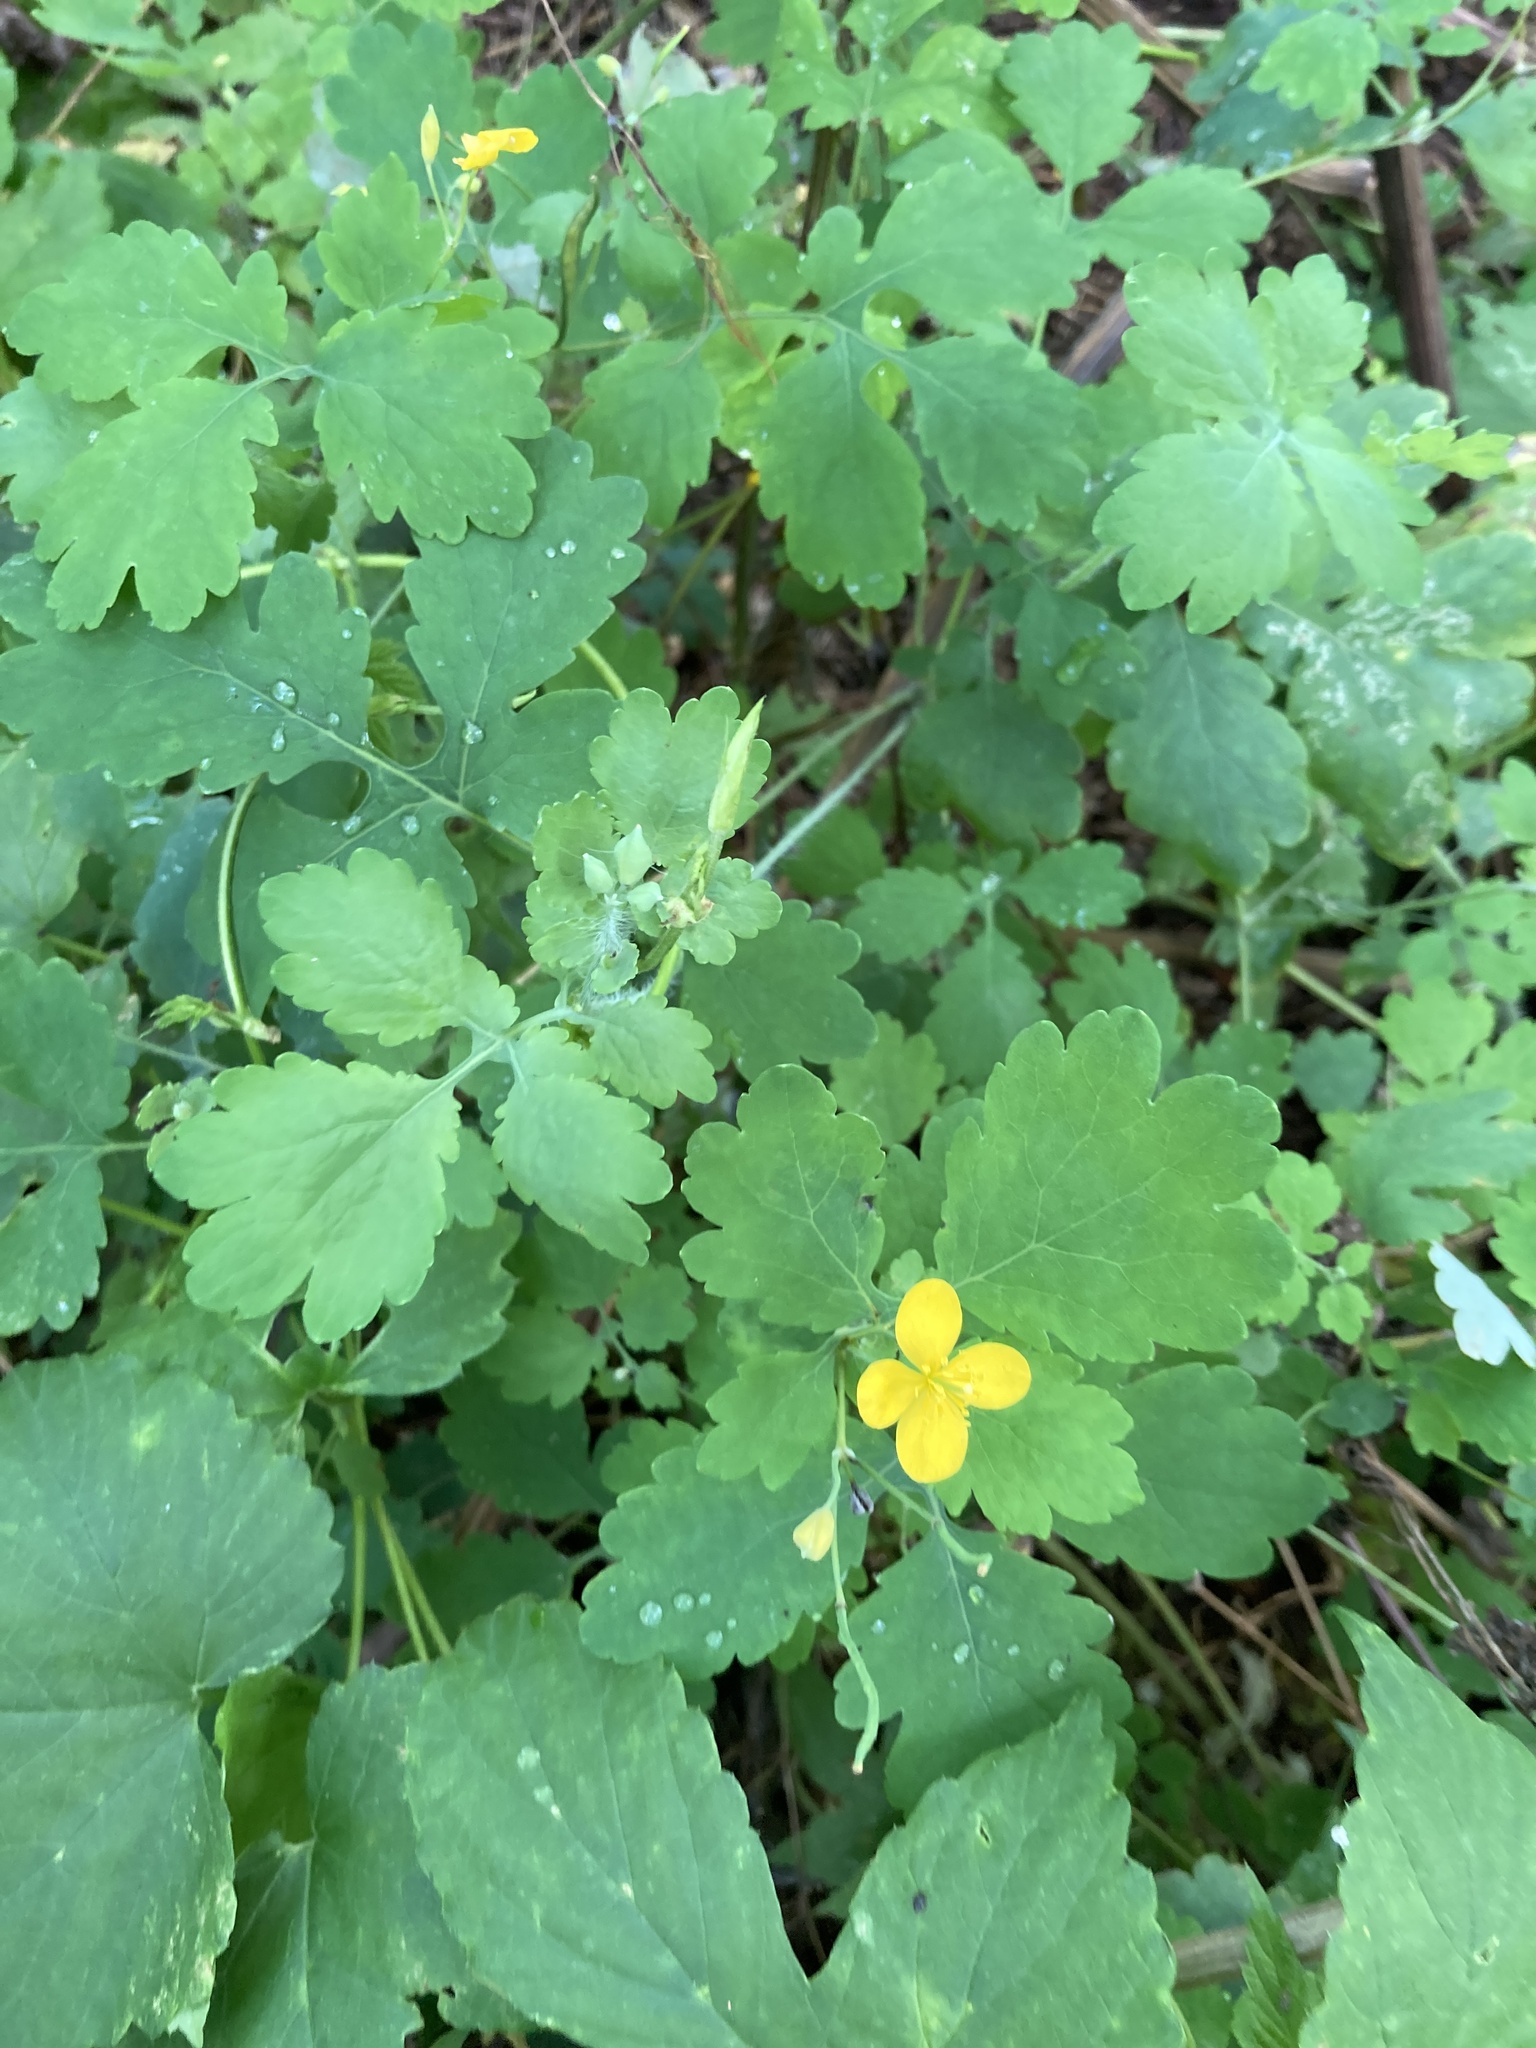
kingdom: Plantae
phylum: Tracheophyta
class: Magnoliopsida
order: Ranunculales
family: Papaveraceae
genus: Chelidonium
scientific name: Chelidonium majus
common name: Greater celandine
